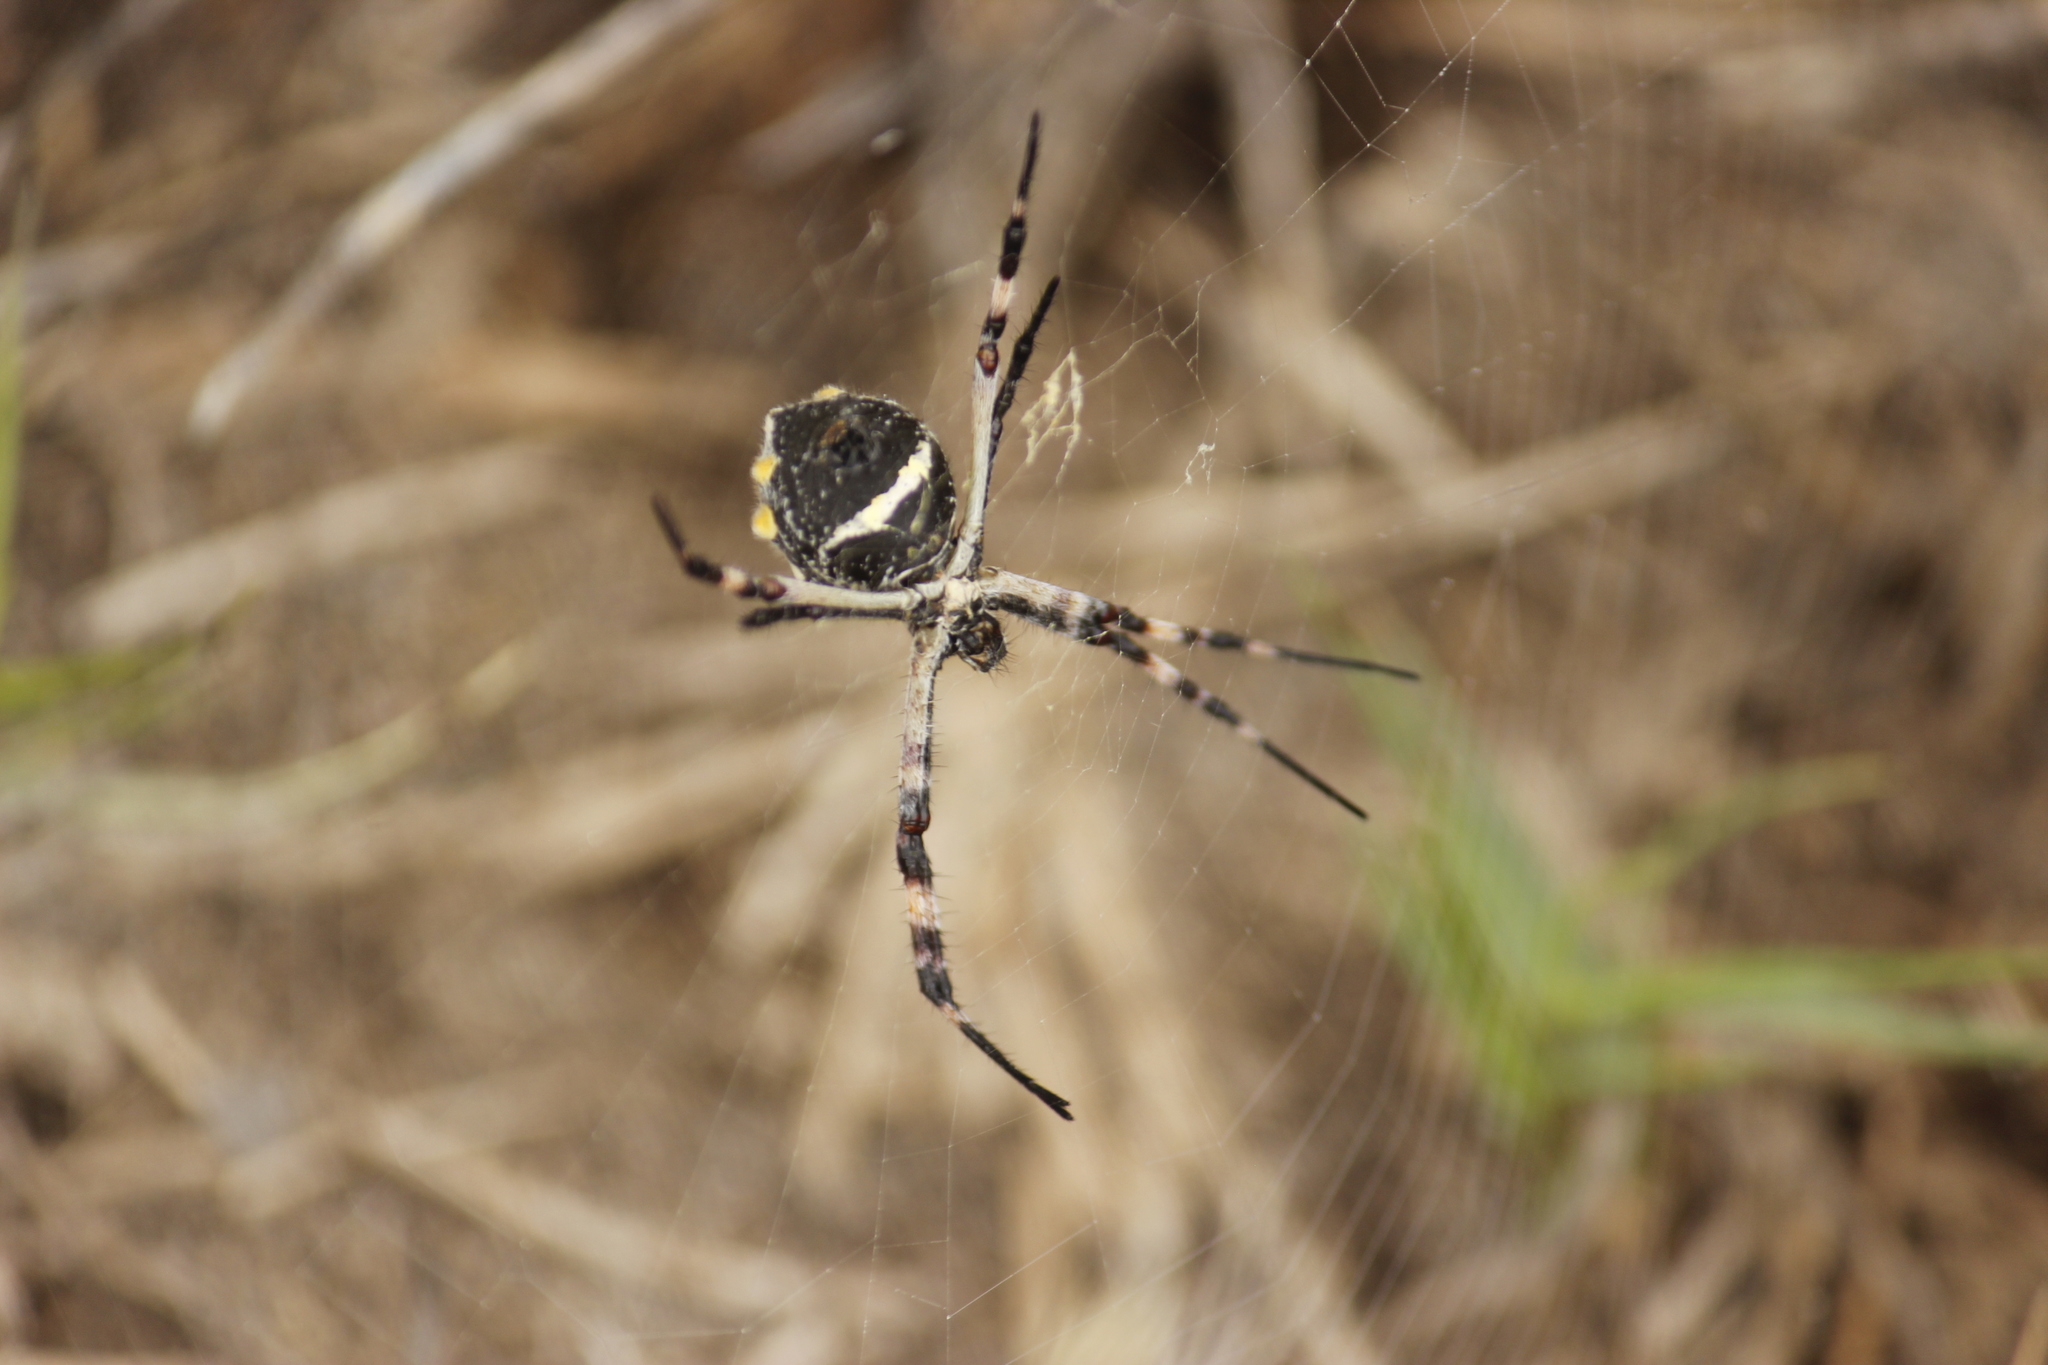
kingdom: Animalia
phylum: Arthropoda
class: Arachnida
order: Araneae
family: Araneidae
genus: Argiope
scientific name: Argiope argentata
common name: Orb weavers
